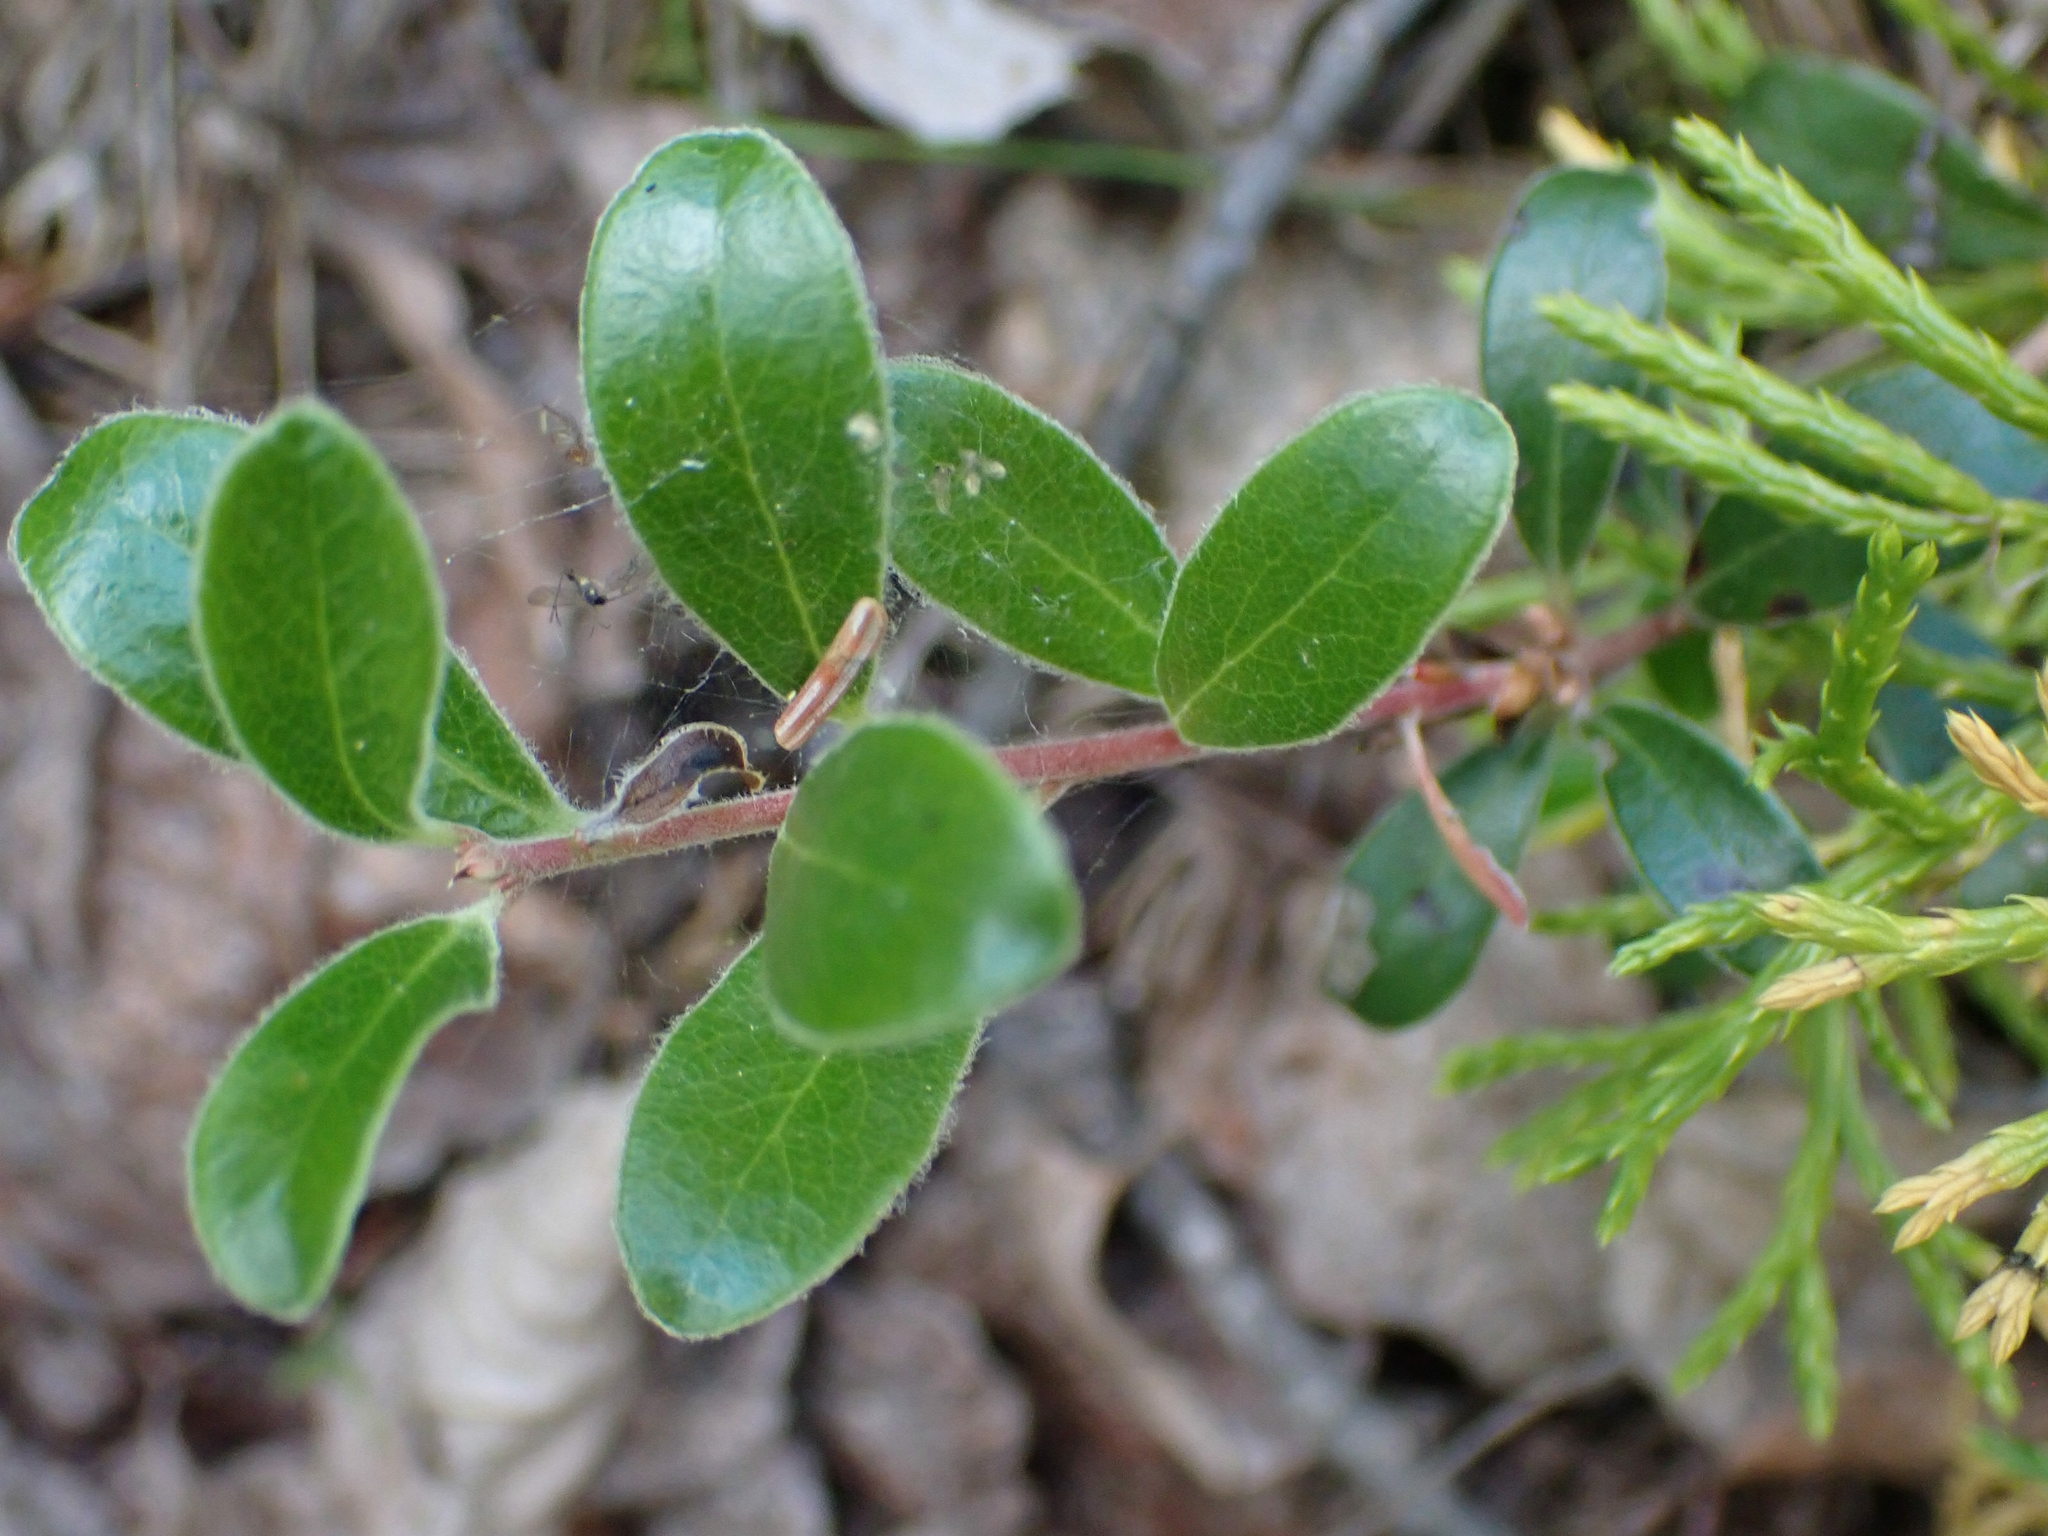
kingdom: Plantae
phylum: Tracheophyta
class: Magnoliopsida
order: Ericales
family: Ericaceae
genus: Arctostaphylos
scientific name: Arctostaphylos uva-ursi
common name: Bearberry
